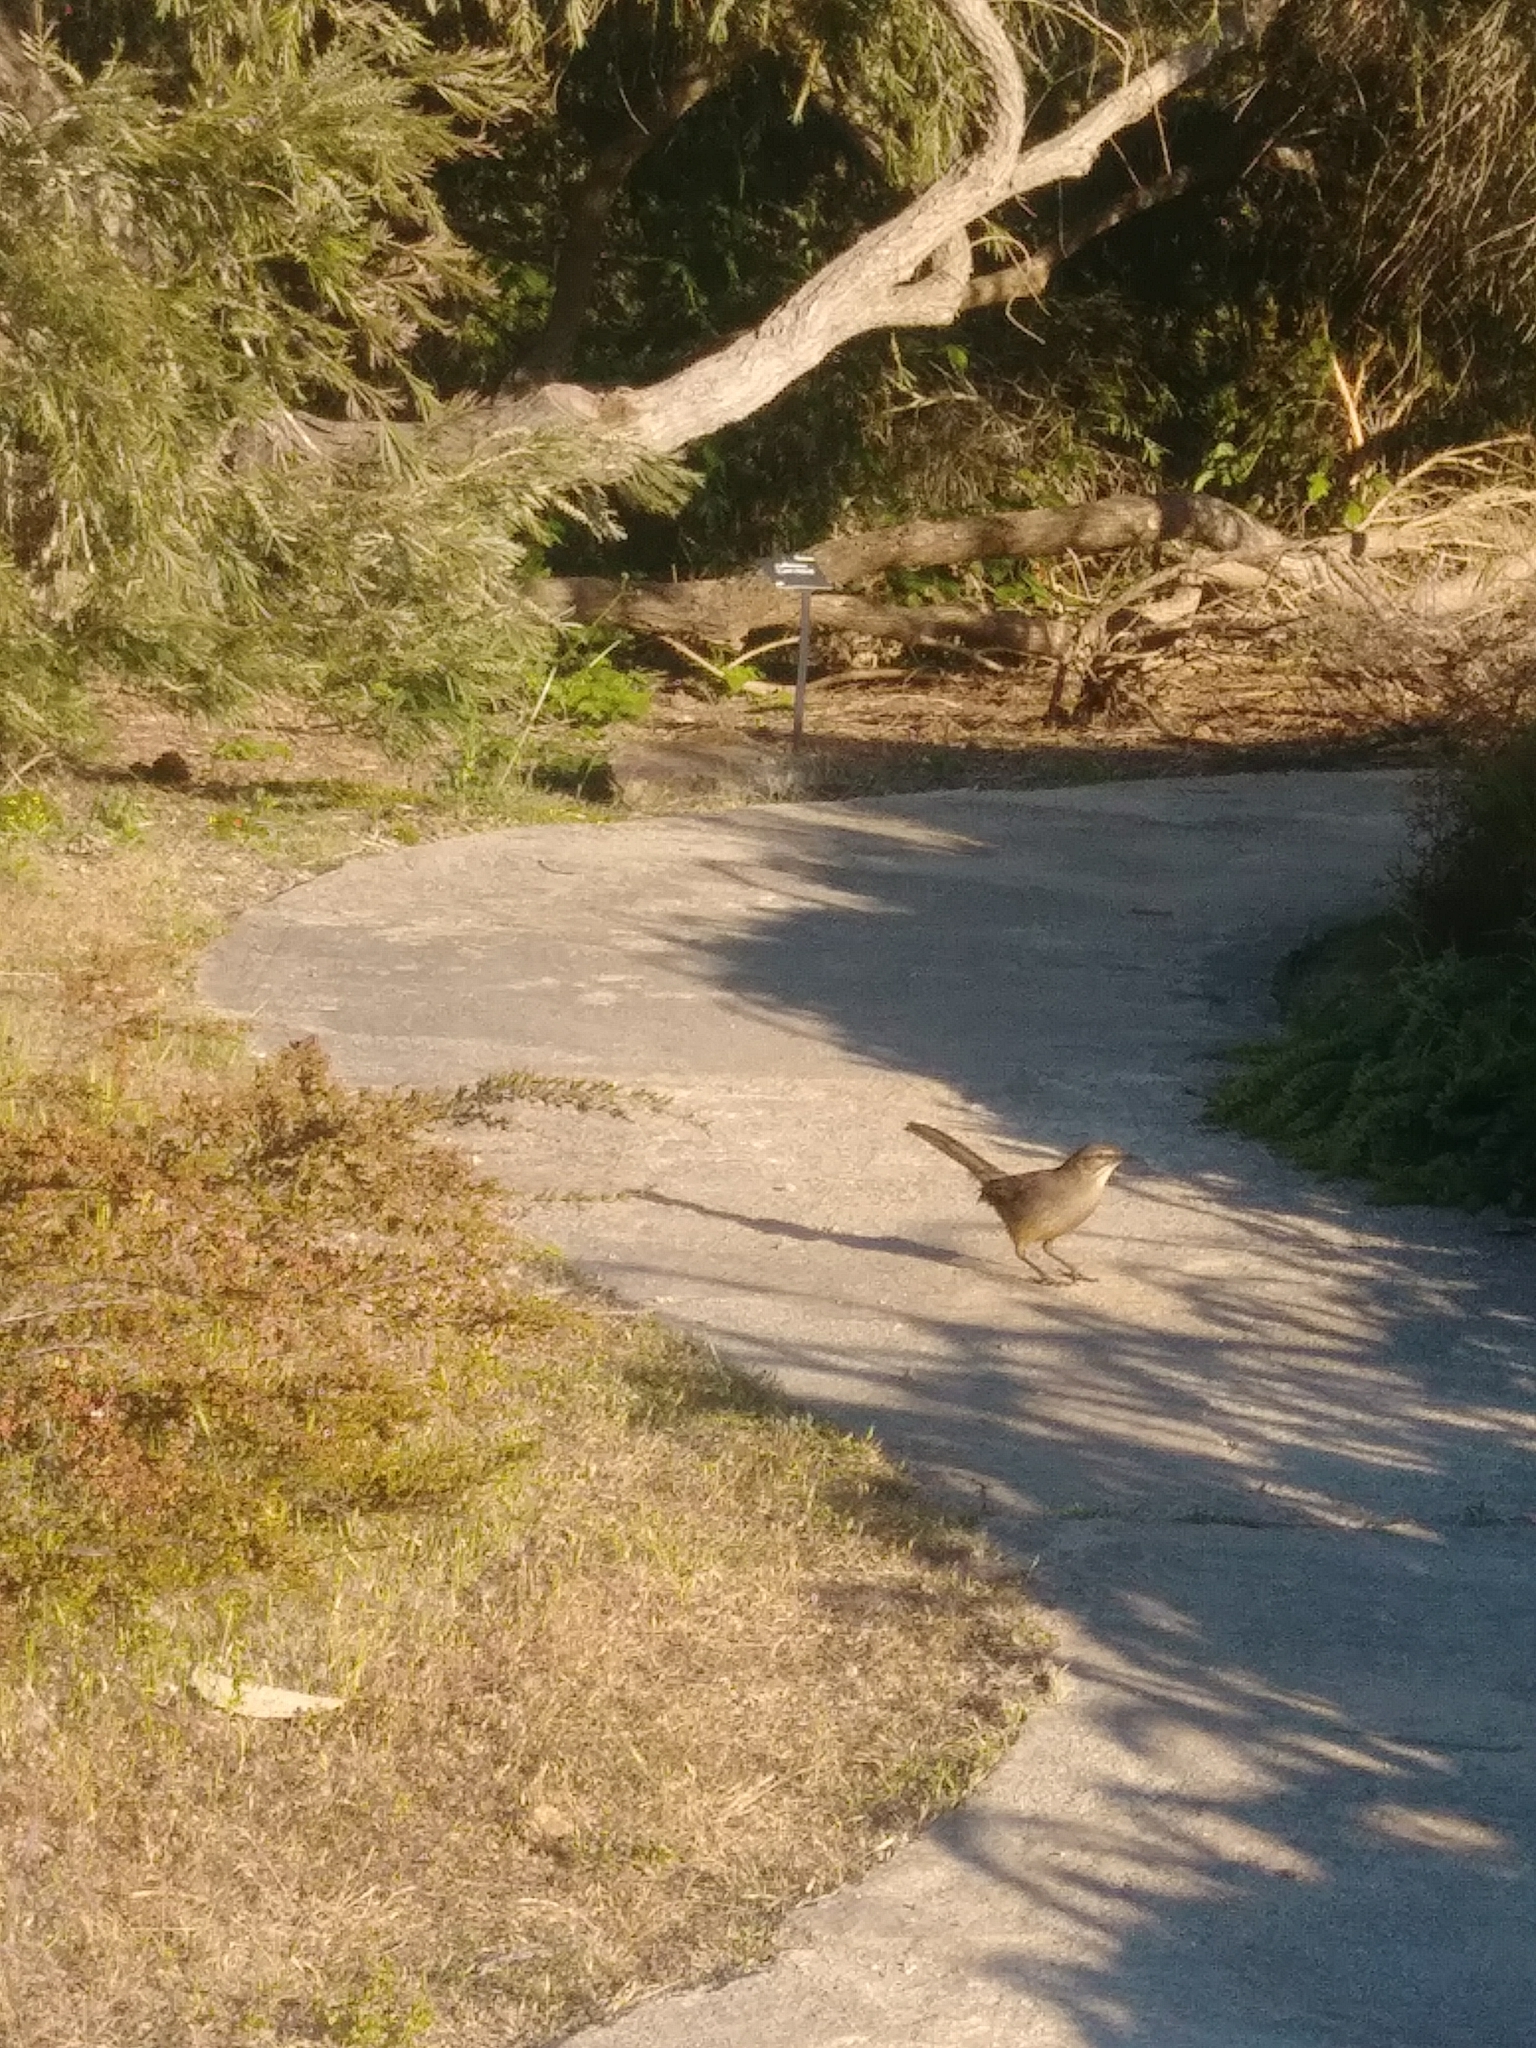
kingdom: Animalia
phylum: Chordata
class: Aves
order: Passeriformes
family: Mimidae
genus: Toxostoma
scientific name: Toxostoma redivivum
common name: California thrasher
